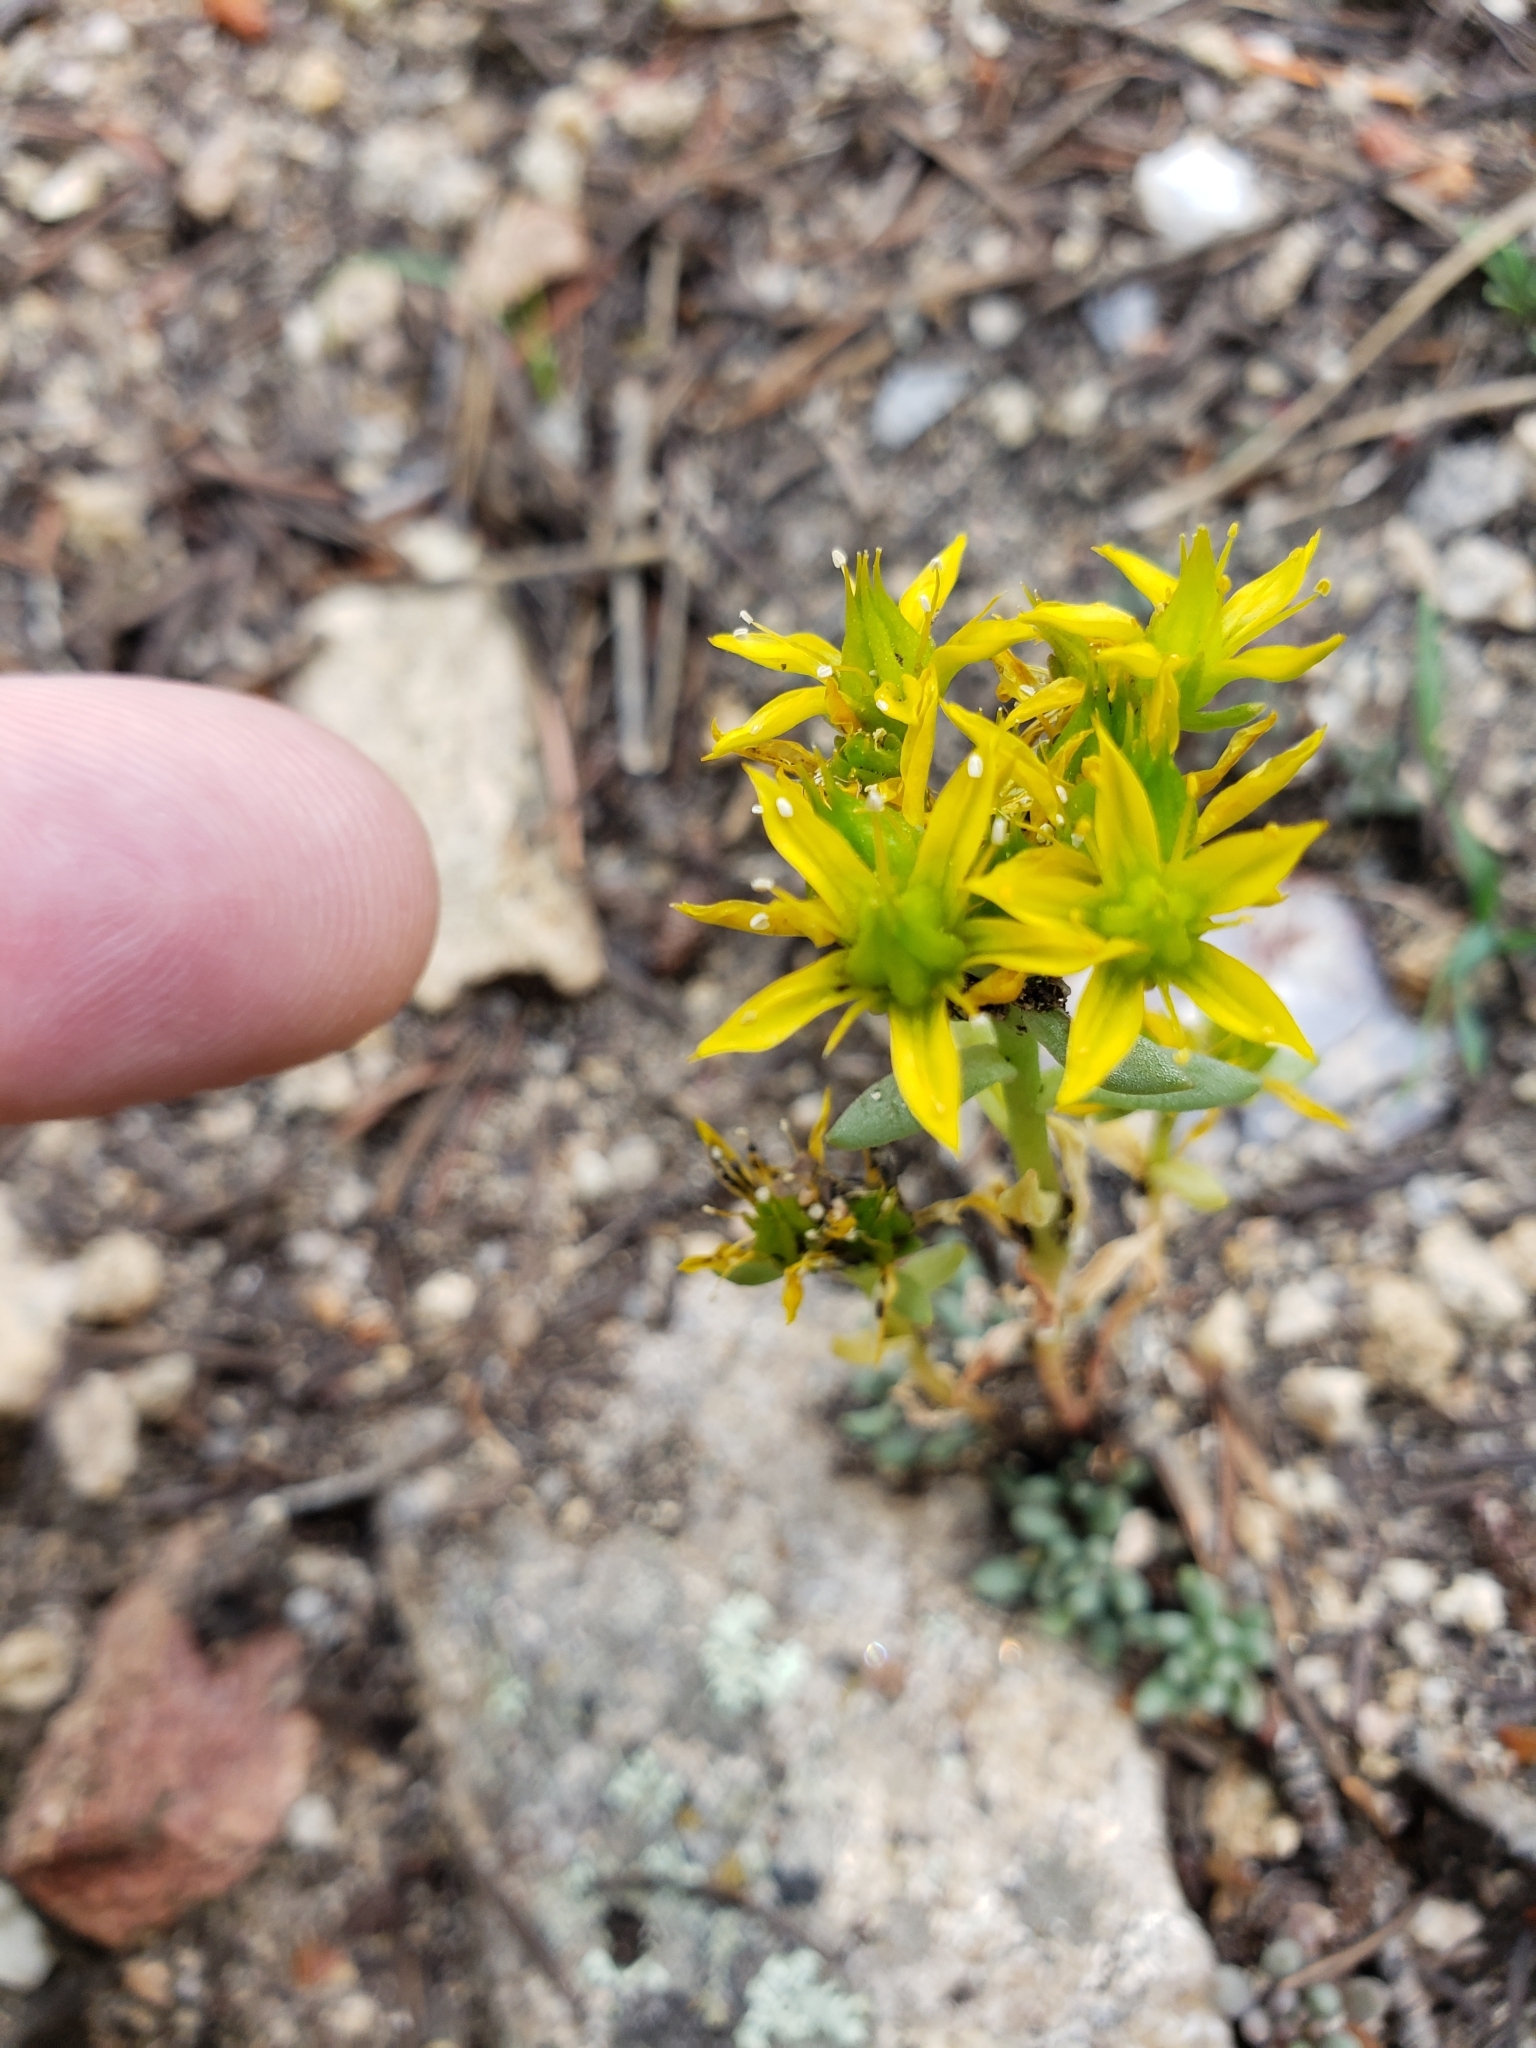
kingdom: Plantae
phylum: Tracheophyta
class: Magnoliopsida
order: Saxifragales
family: Crassulaceae
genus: Sedum
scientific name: Sedum lanceolatum
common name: Common stonecrop
